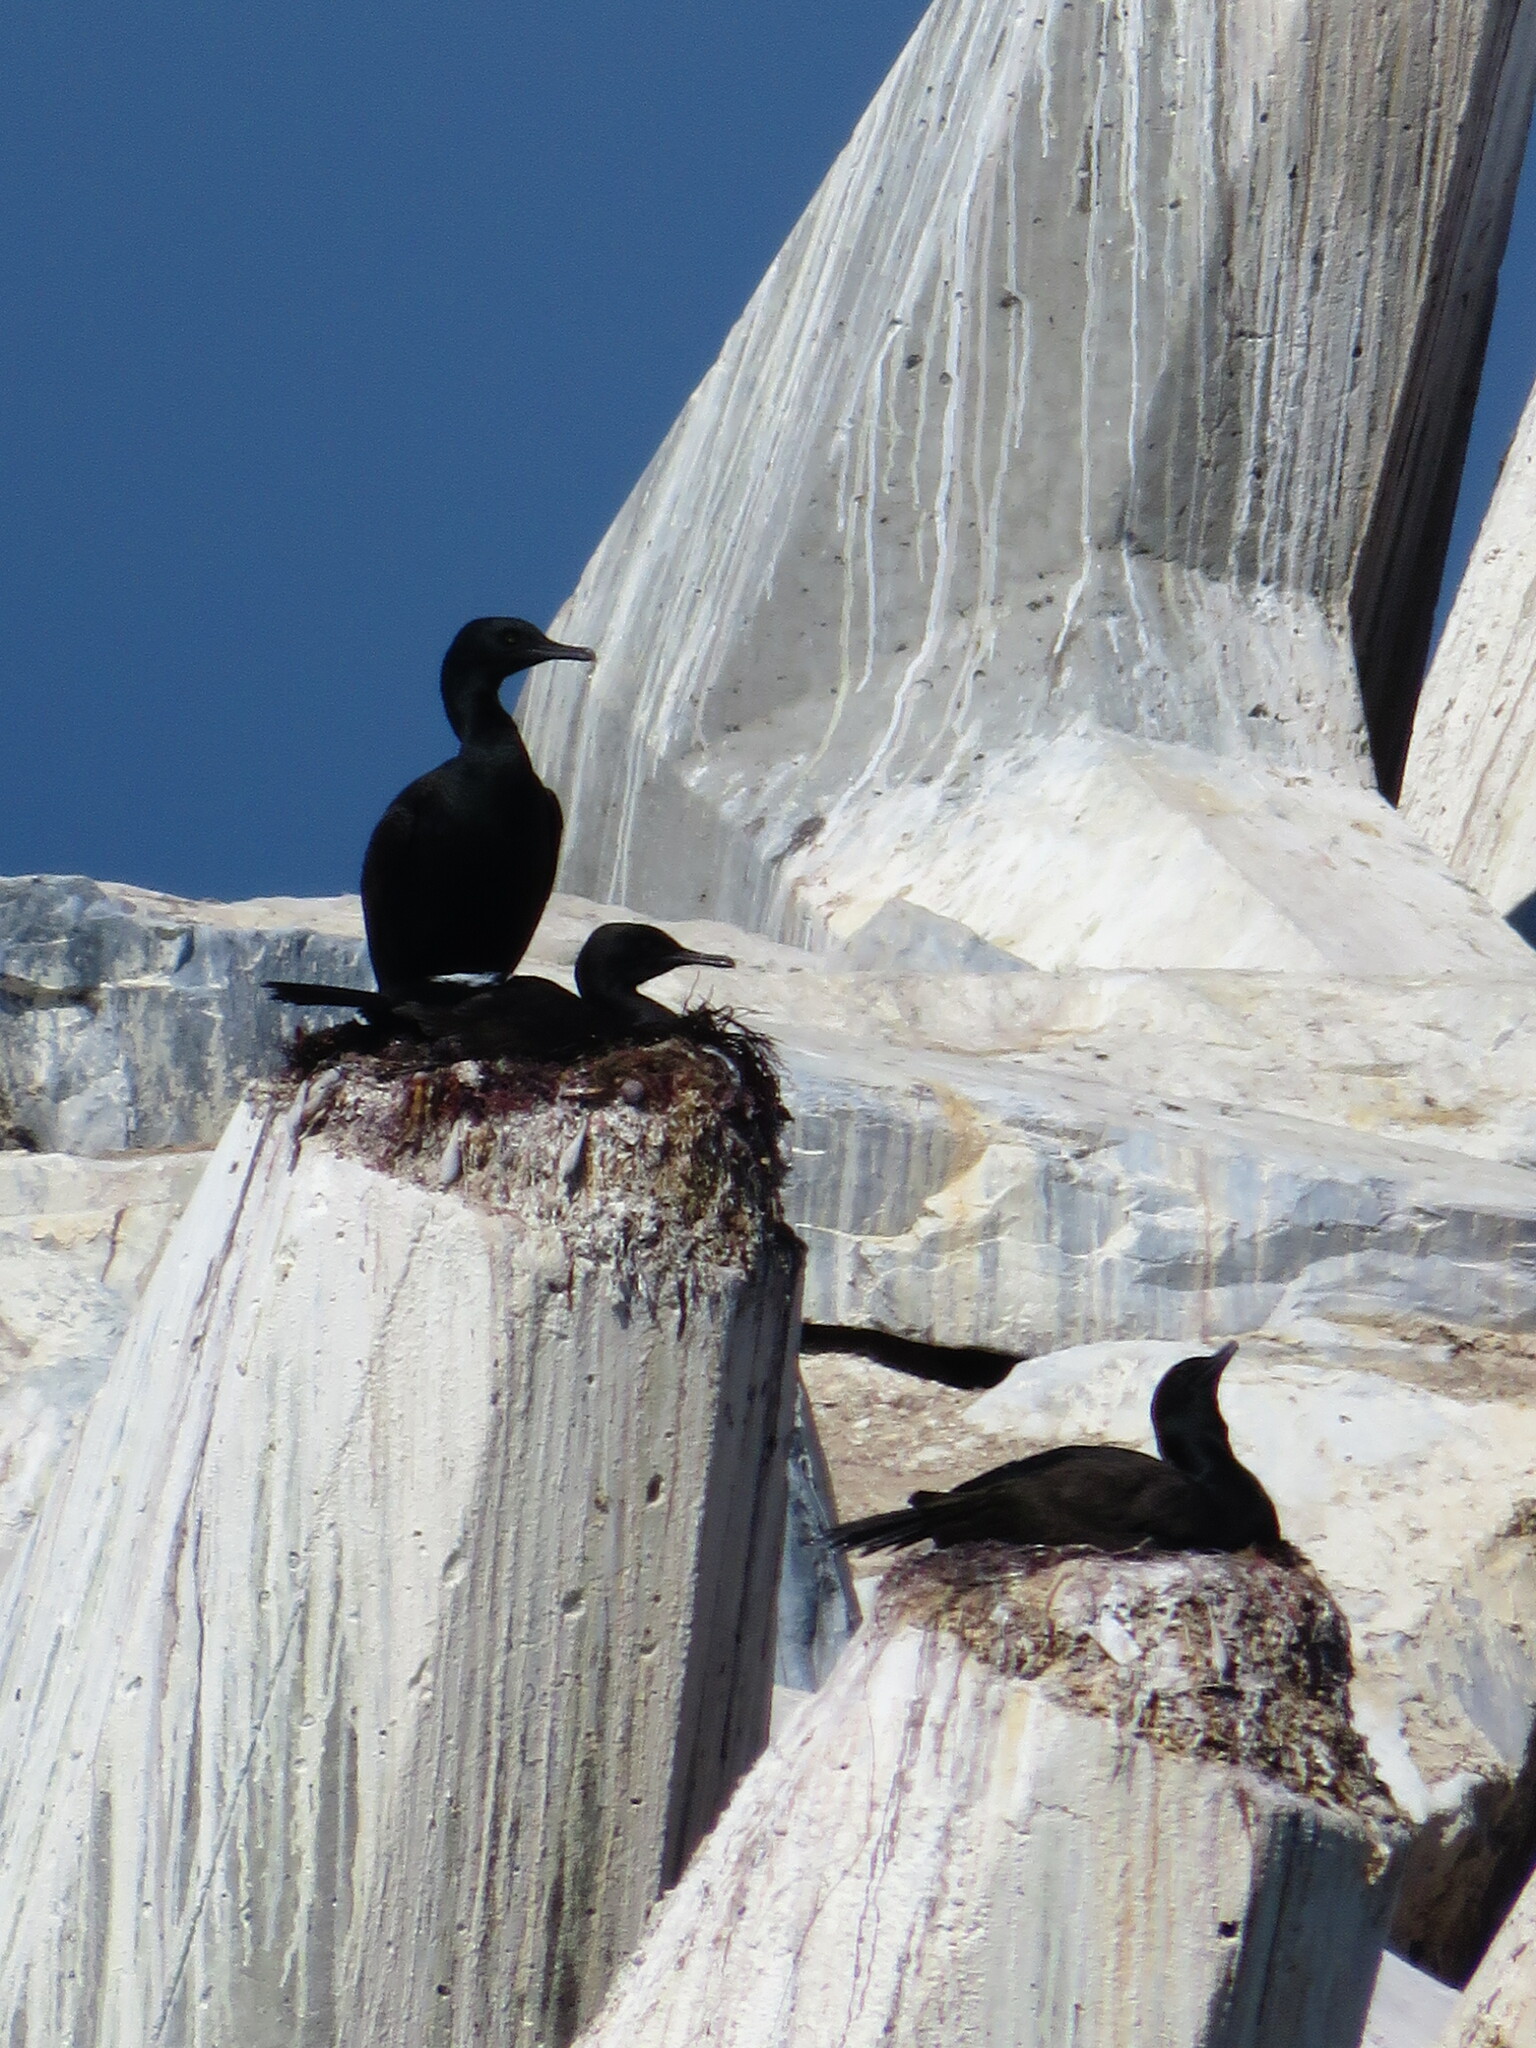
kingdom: Animalia
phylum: Chordata
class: Aves
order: Suliformes
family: Phalacrocoracidae
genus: Phalacrocorax
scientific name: Phalacrocorax neglectus
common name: Bank cormorant
